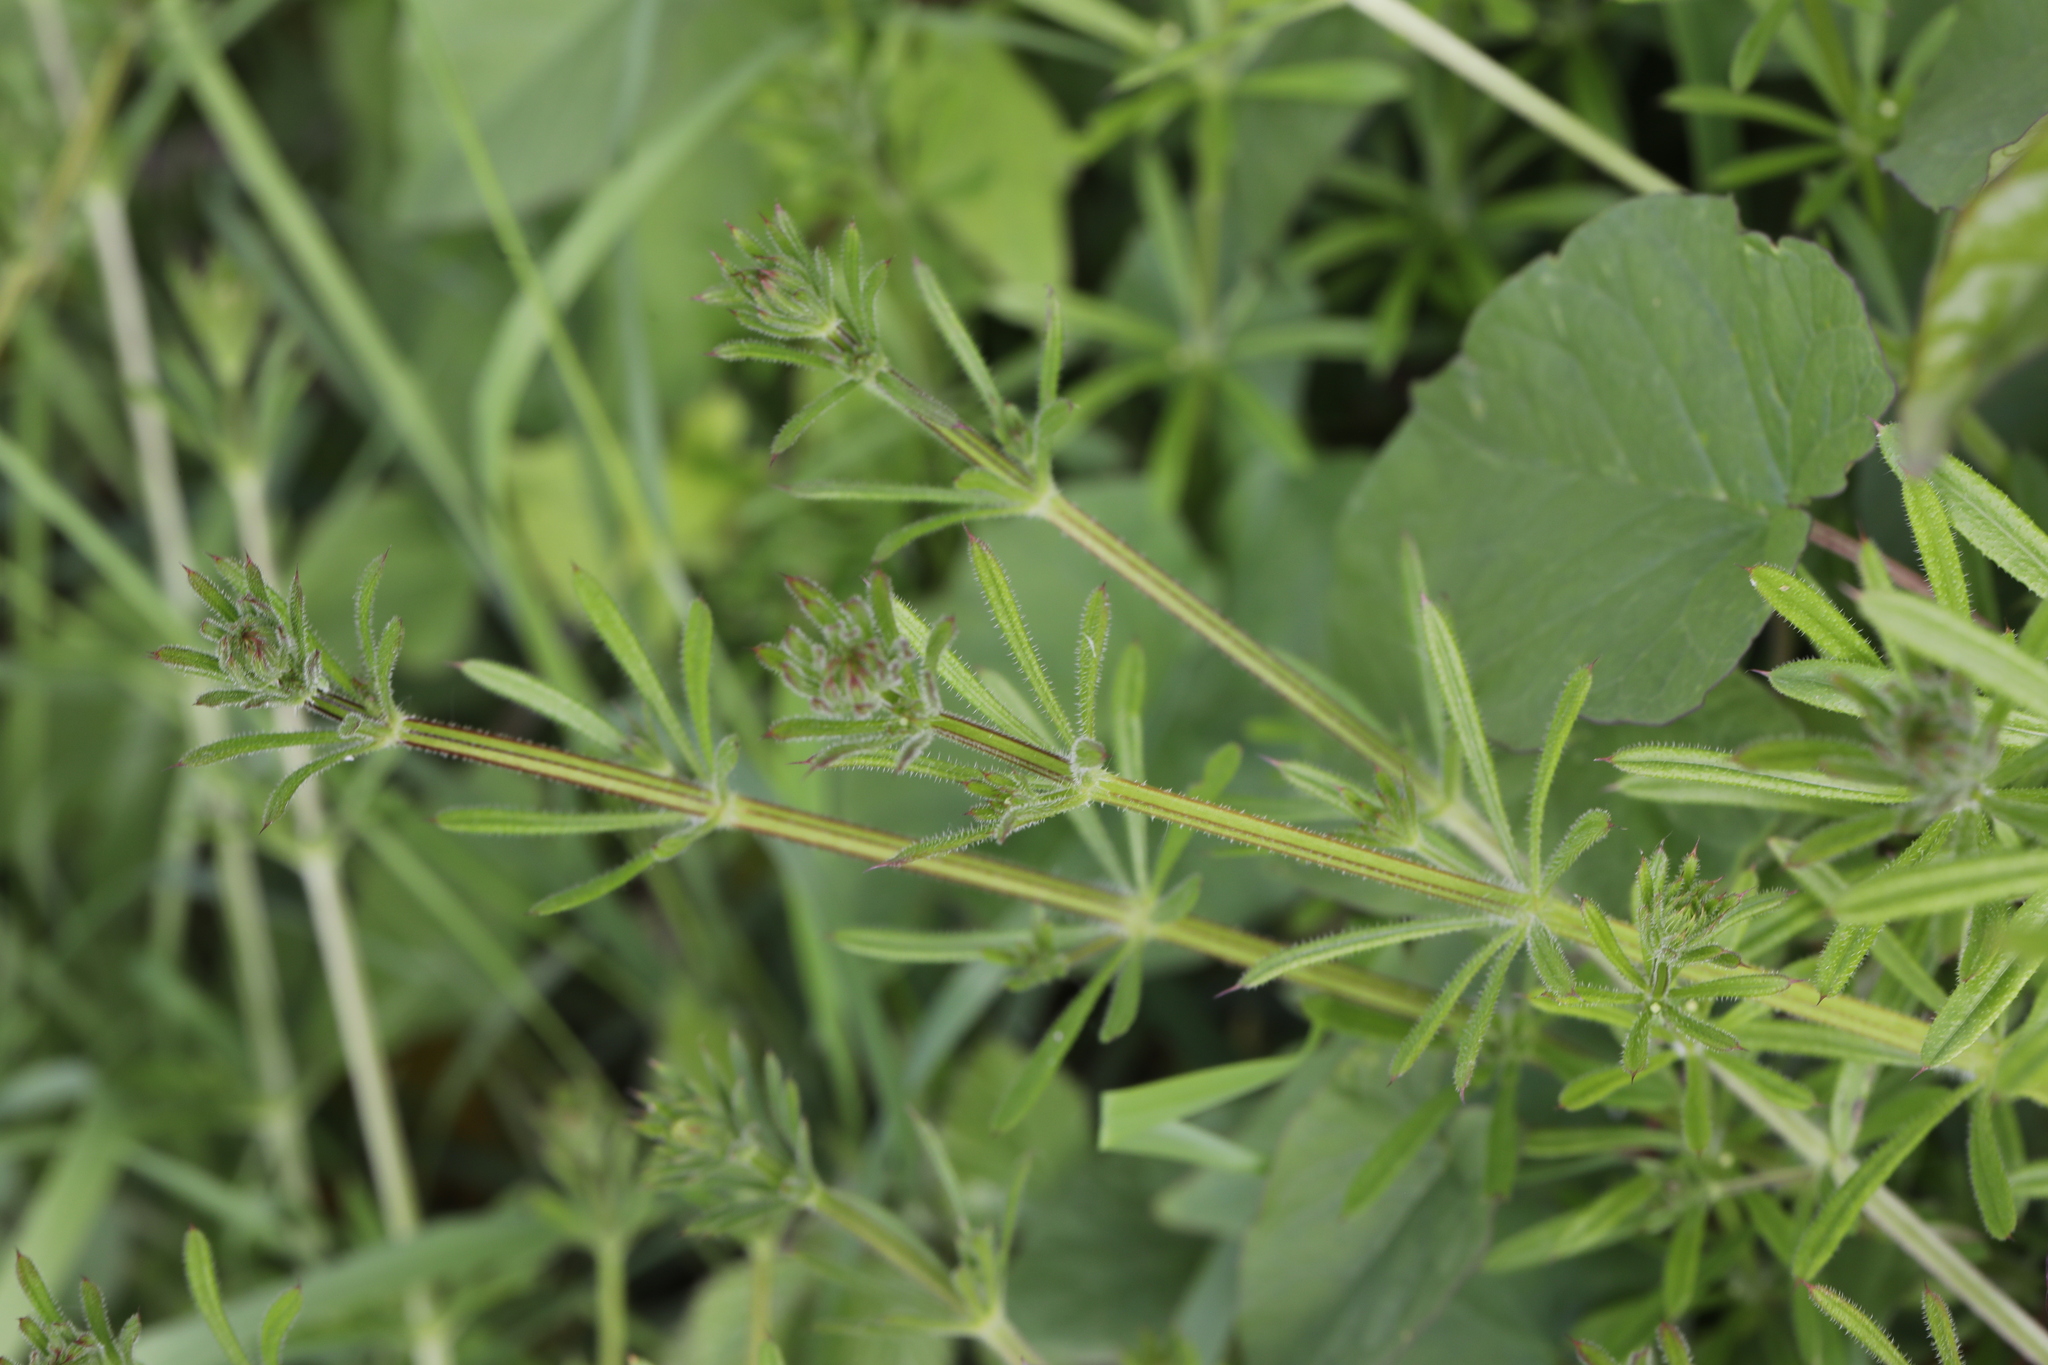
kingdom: Plantae
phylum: Tracheophyta
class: Magnoliopsida
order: Gentianales
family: Rubiaceae
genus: Galium
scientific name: Galium aparine
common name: Cleavers
